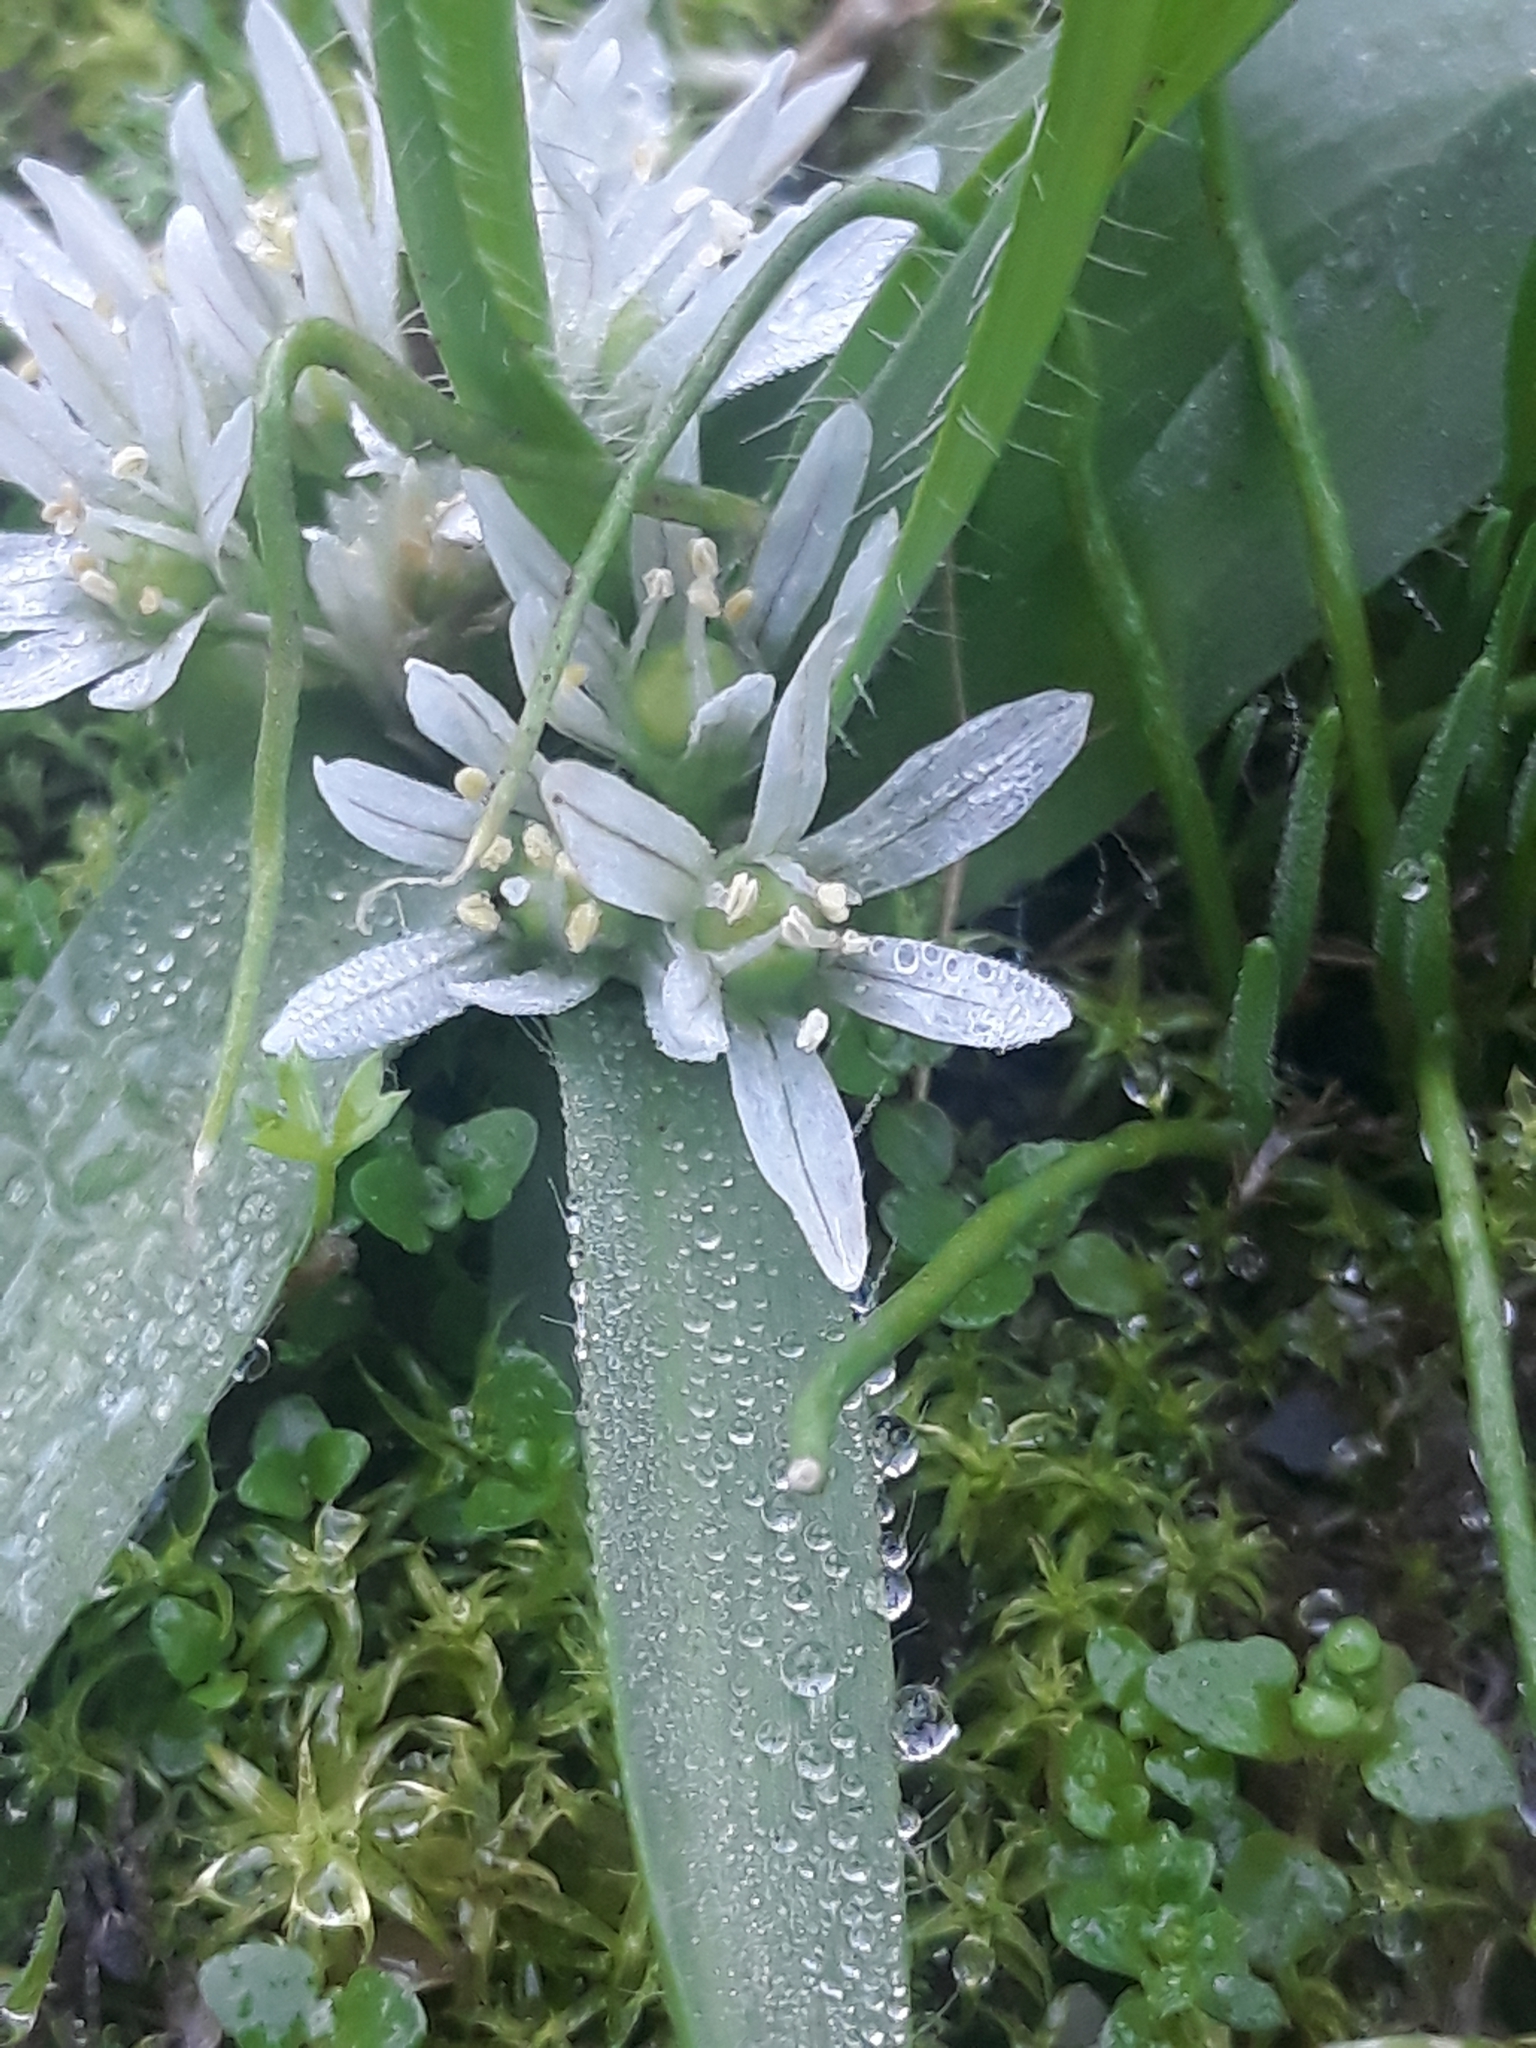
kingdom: Plantae
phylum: Tracheophyta
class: Liliopsida
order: Asparagales
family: Amaryllidaceae
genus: Allium
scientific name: Allium chamaemoly
